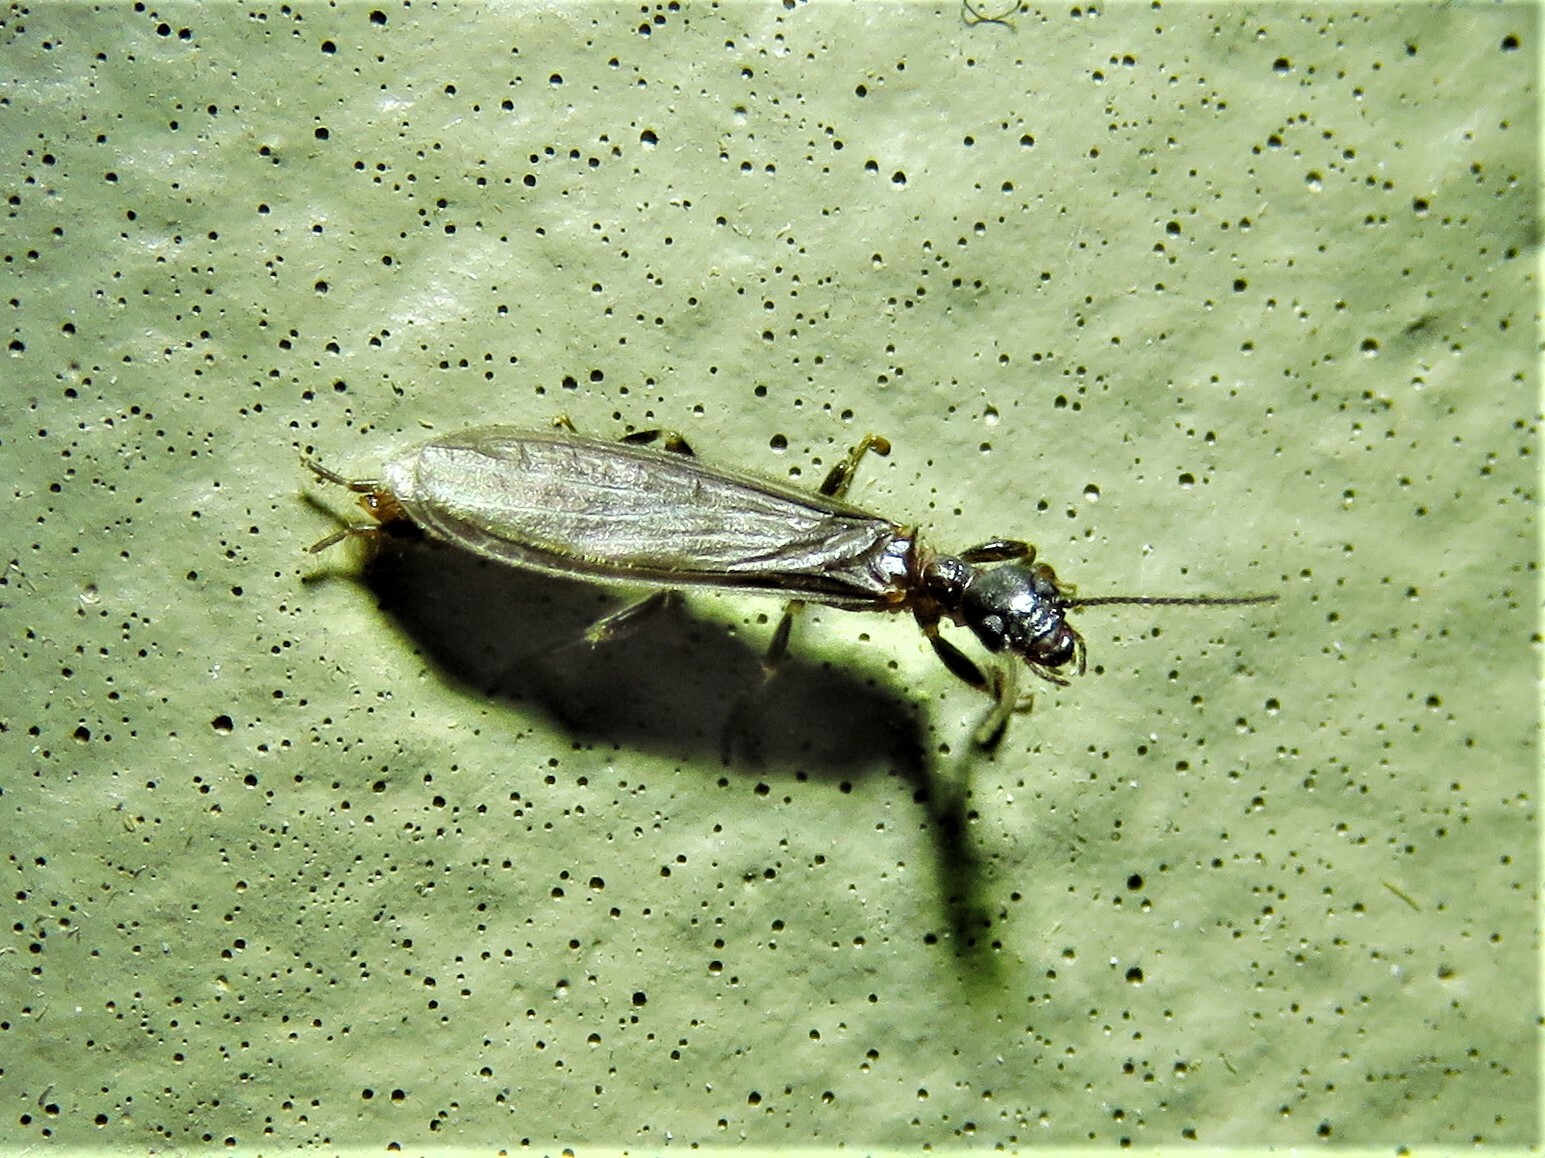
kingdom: Animalia
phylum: Arthropoda
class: Insecta
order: Embioptera
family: Oligotomidae
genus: Oligotoma
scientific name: Oligotoma nigra
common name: Black webspinner
